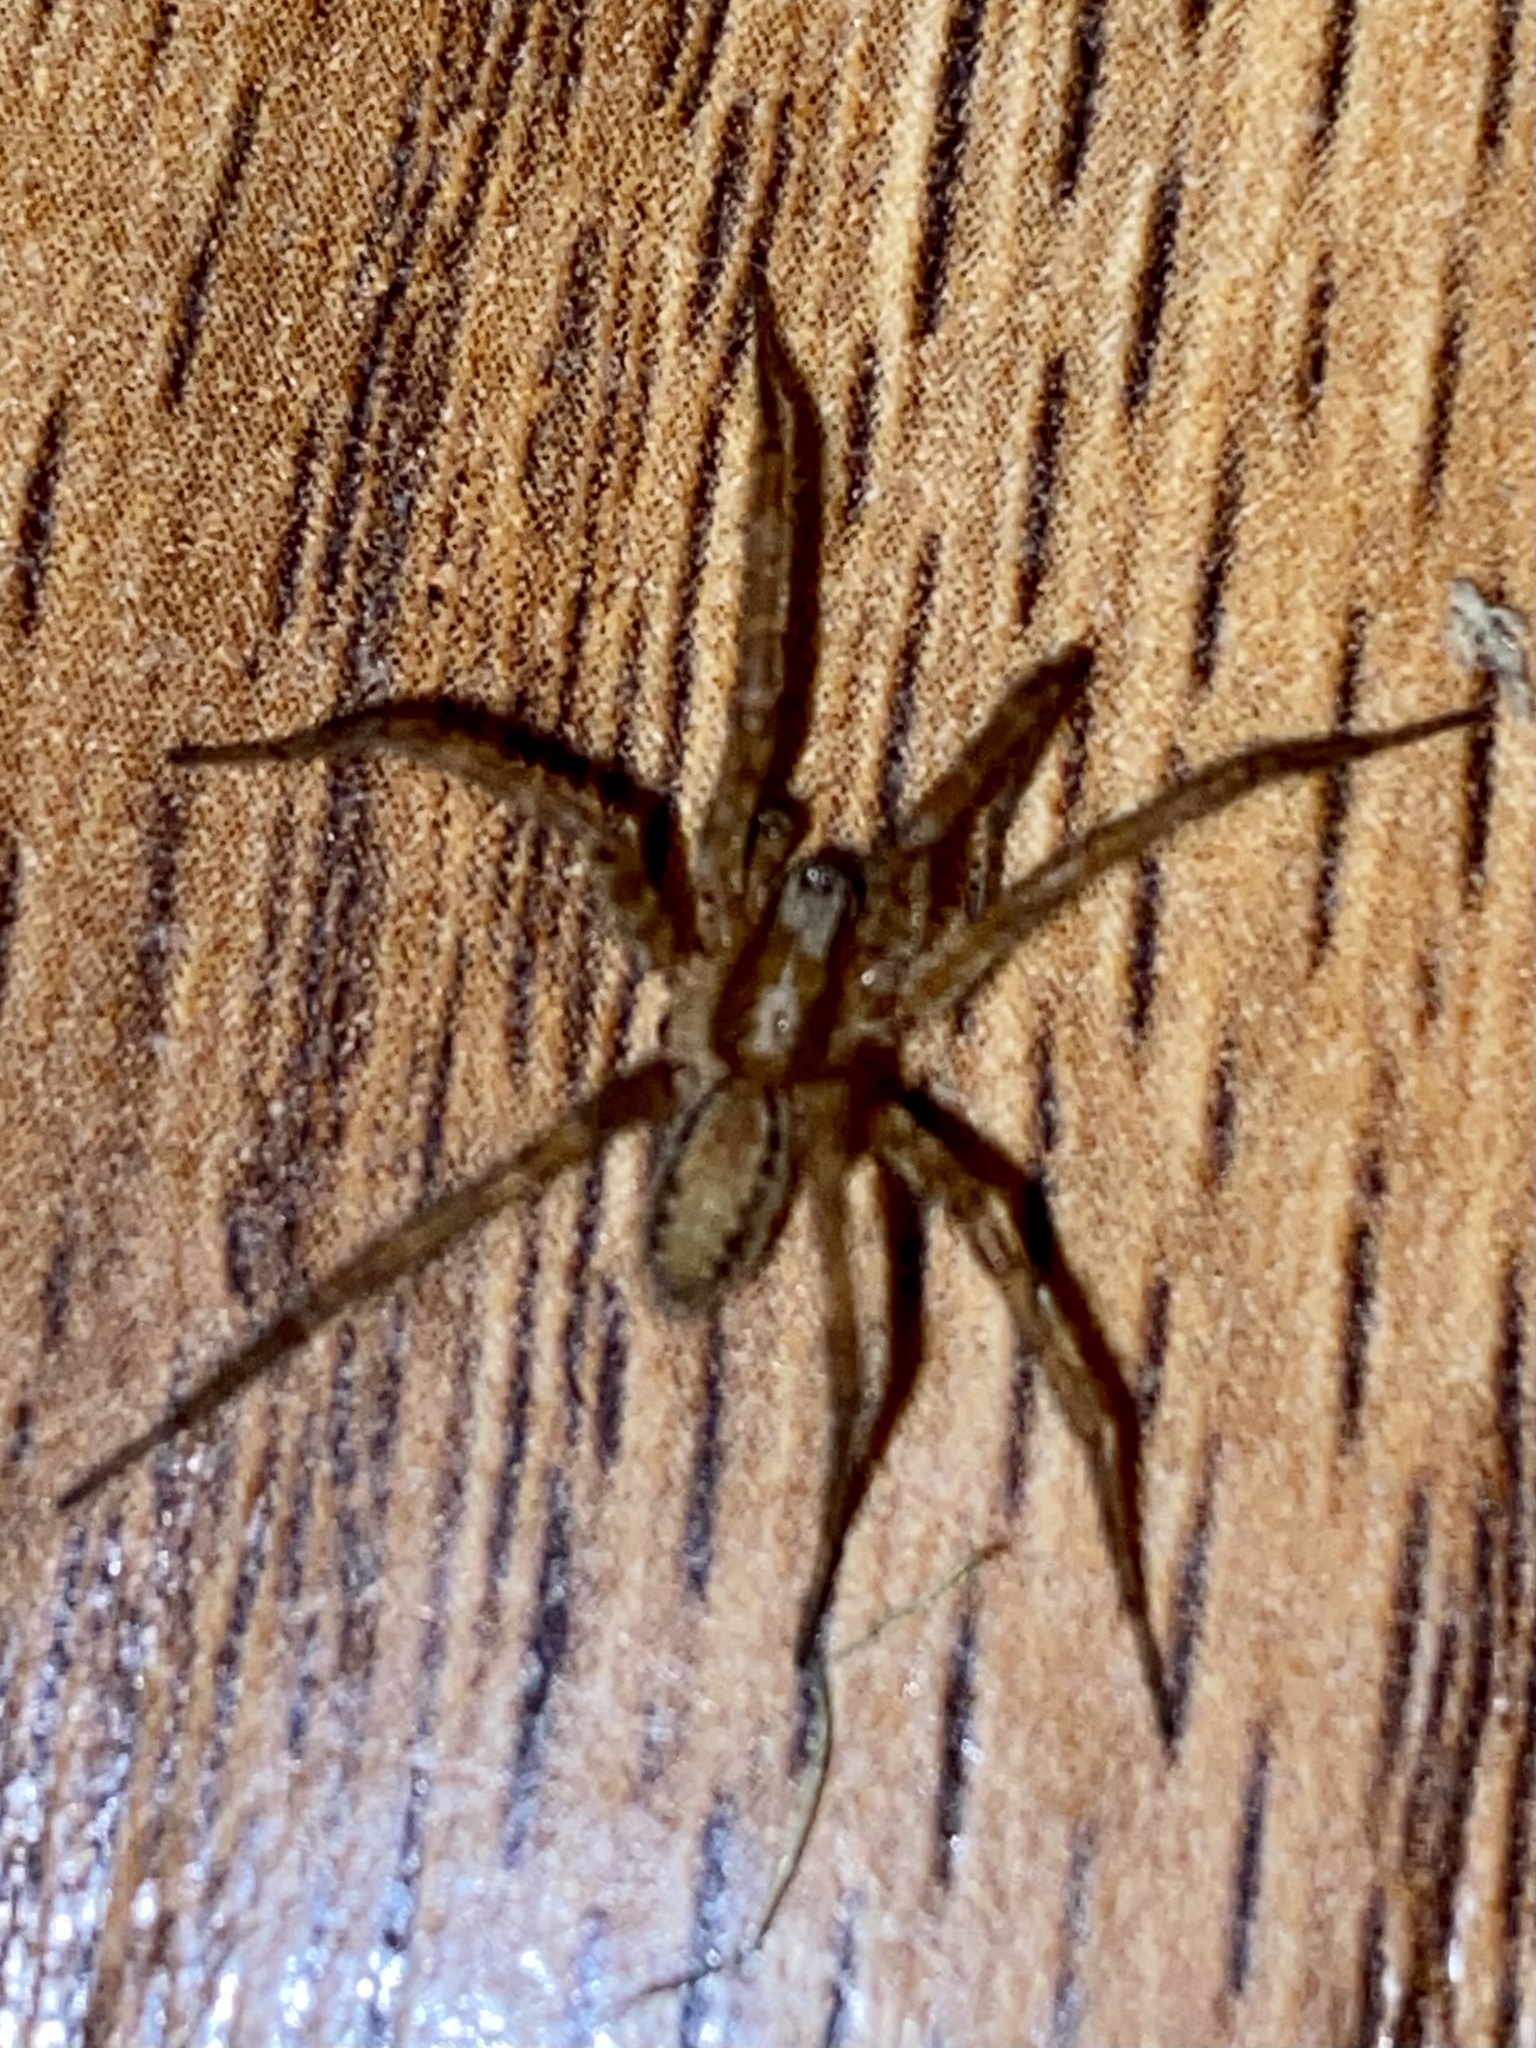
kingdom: Animalia
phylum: Arthropoda
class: Arachnida
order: Araneae
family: Agelenidae
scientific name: Agelenidae
